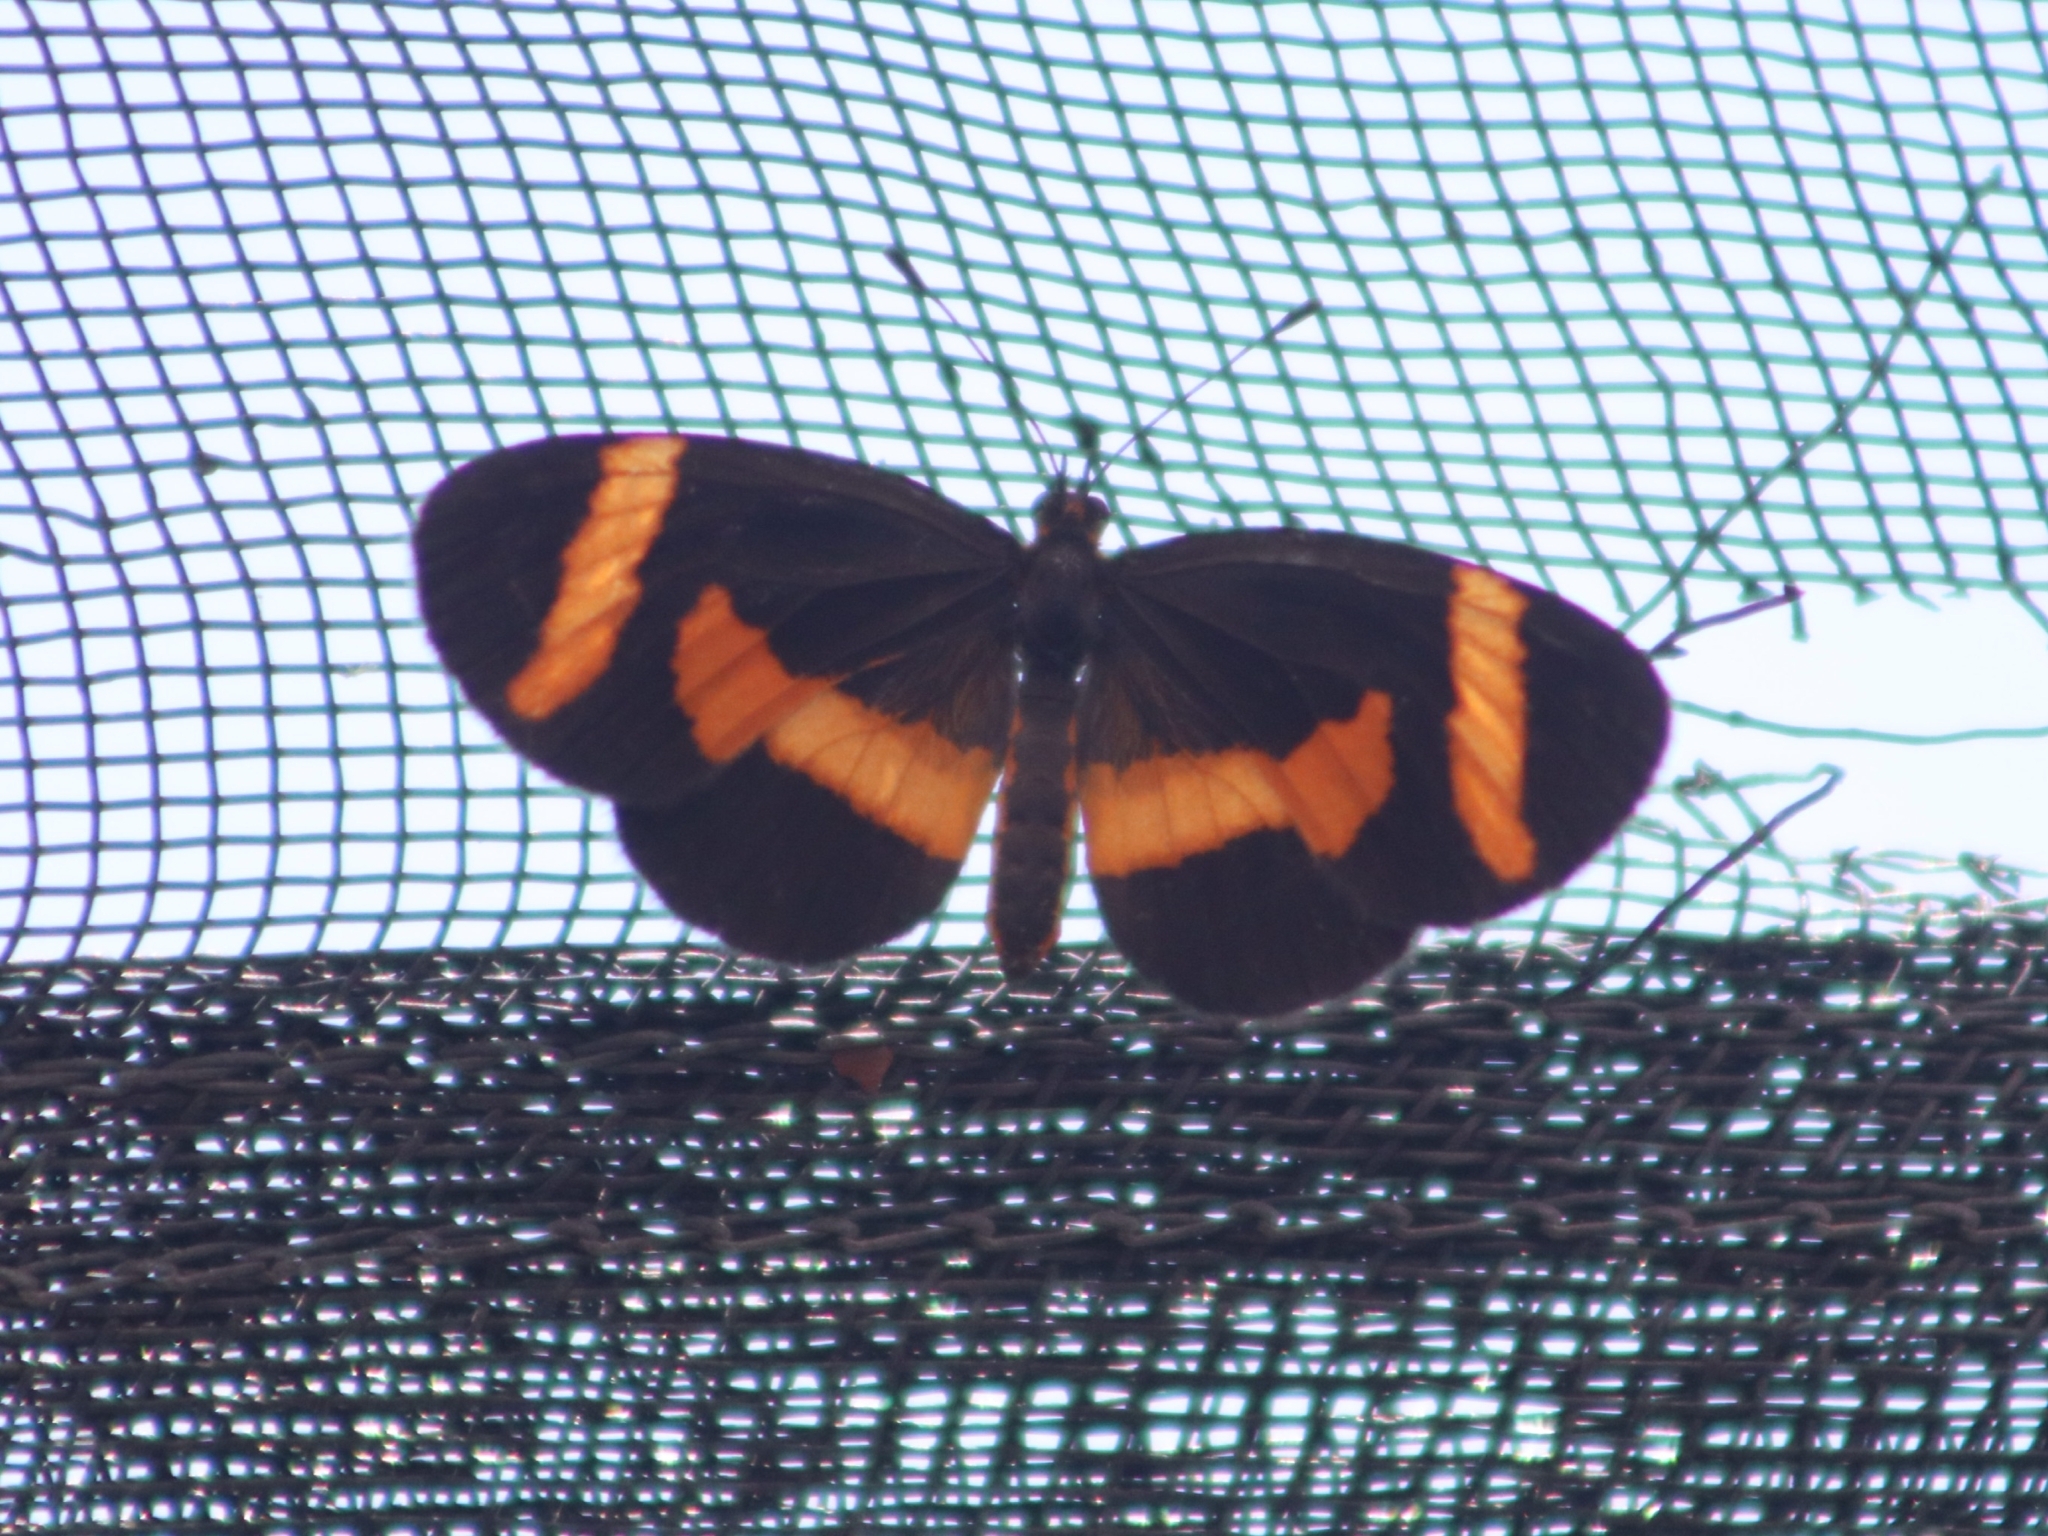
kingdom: Animalia
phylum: Arthropoda
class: Insecta
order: Lepidoptera
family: Nymphalidae
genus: Microtia
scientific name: Microtia elva
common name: Elf
